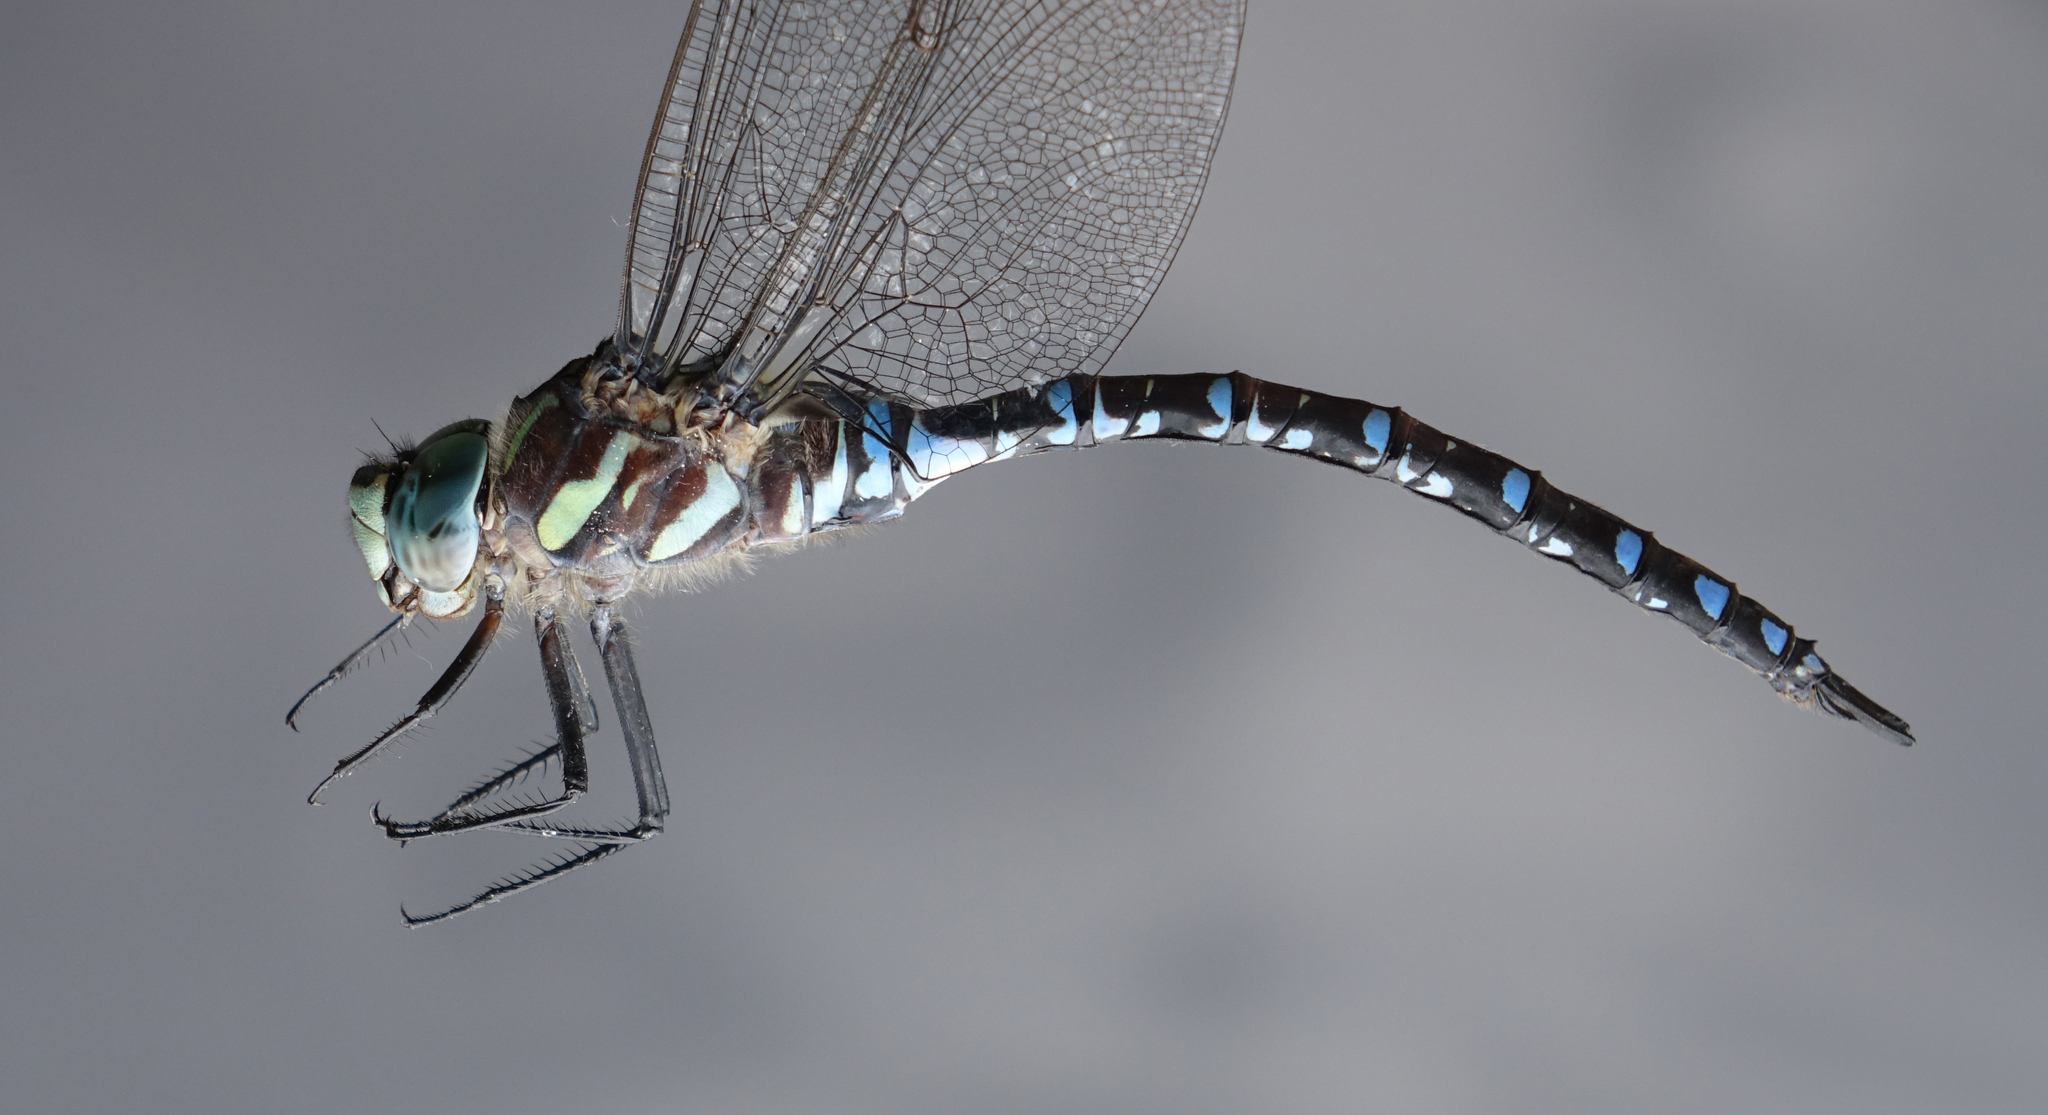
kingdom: Animalia
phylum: Arthropoda
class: Insecta
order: Odonata
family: Aeshnidae
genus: Aeshna
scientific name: Aeshna crenata
